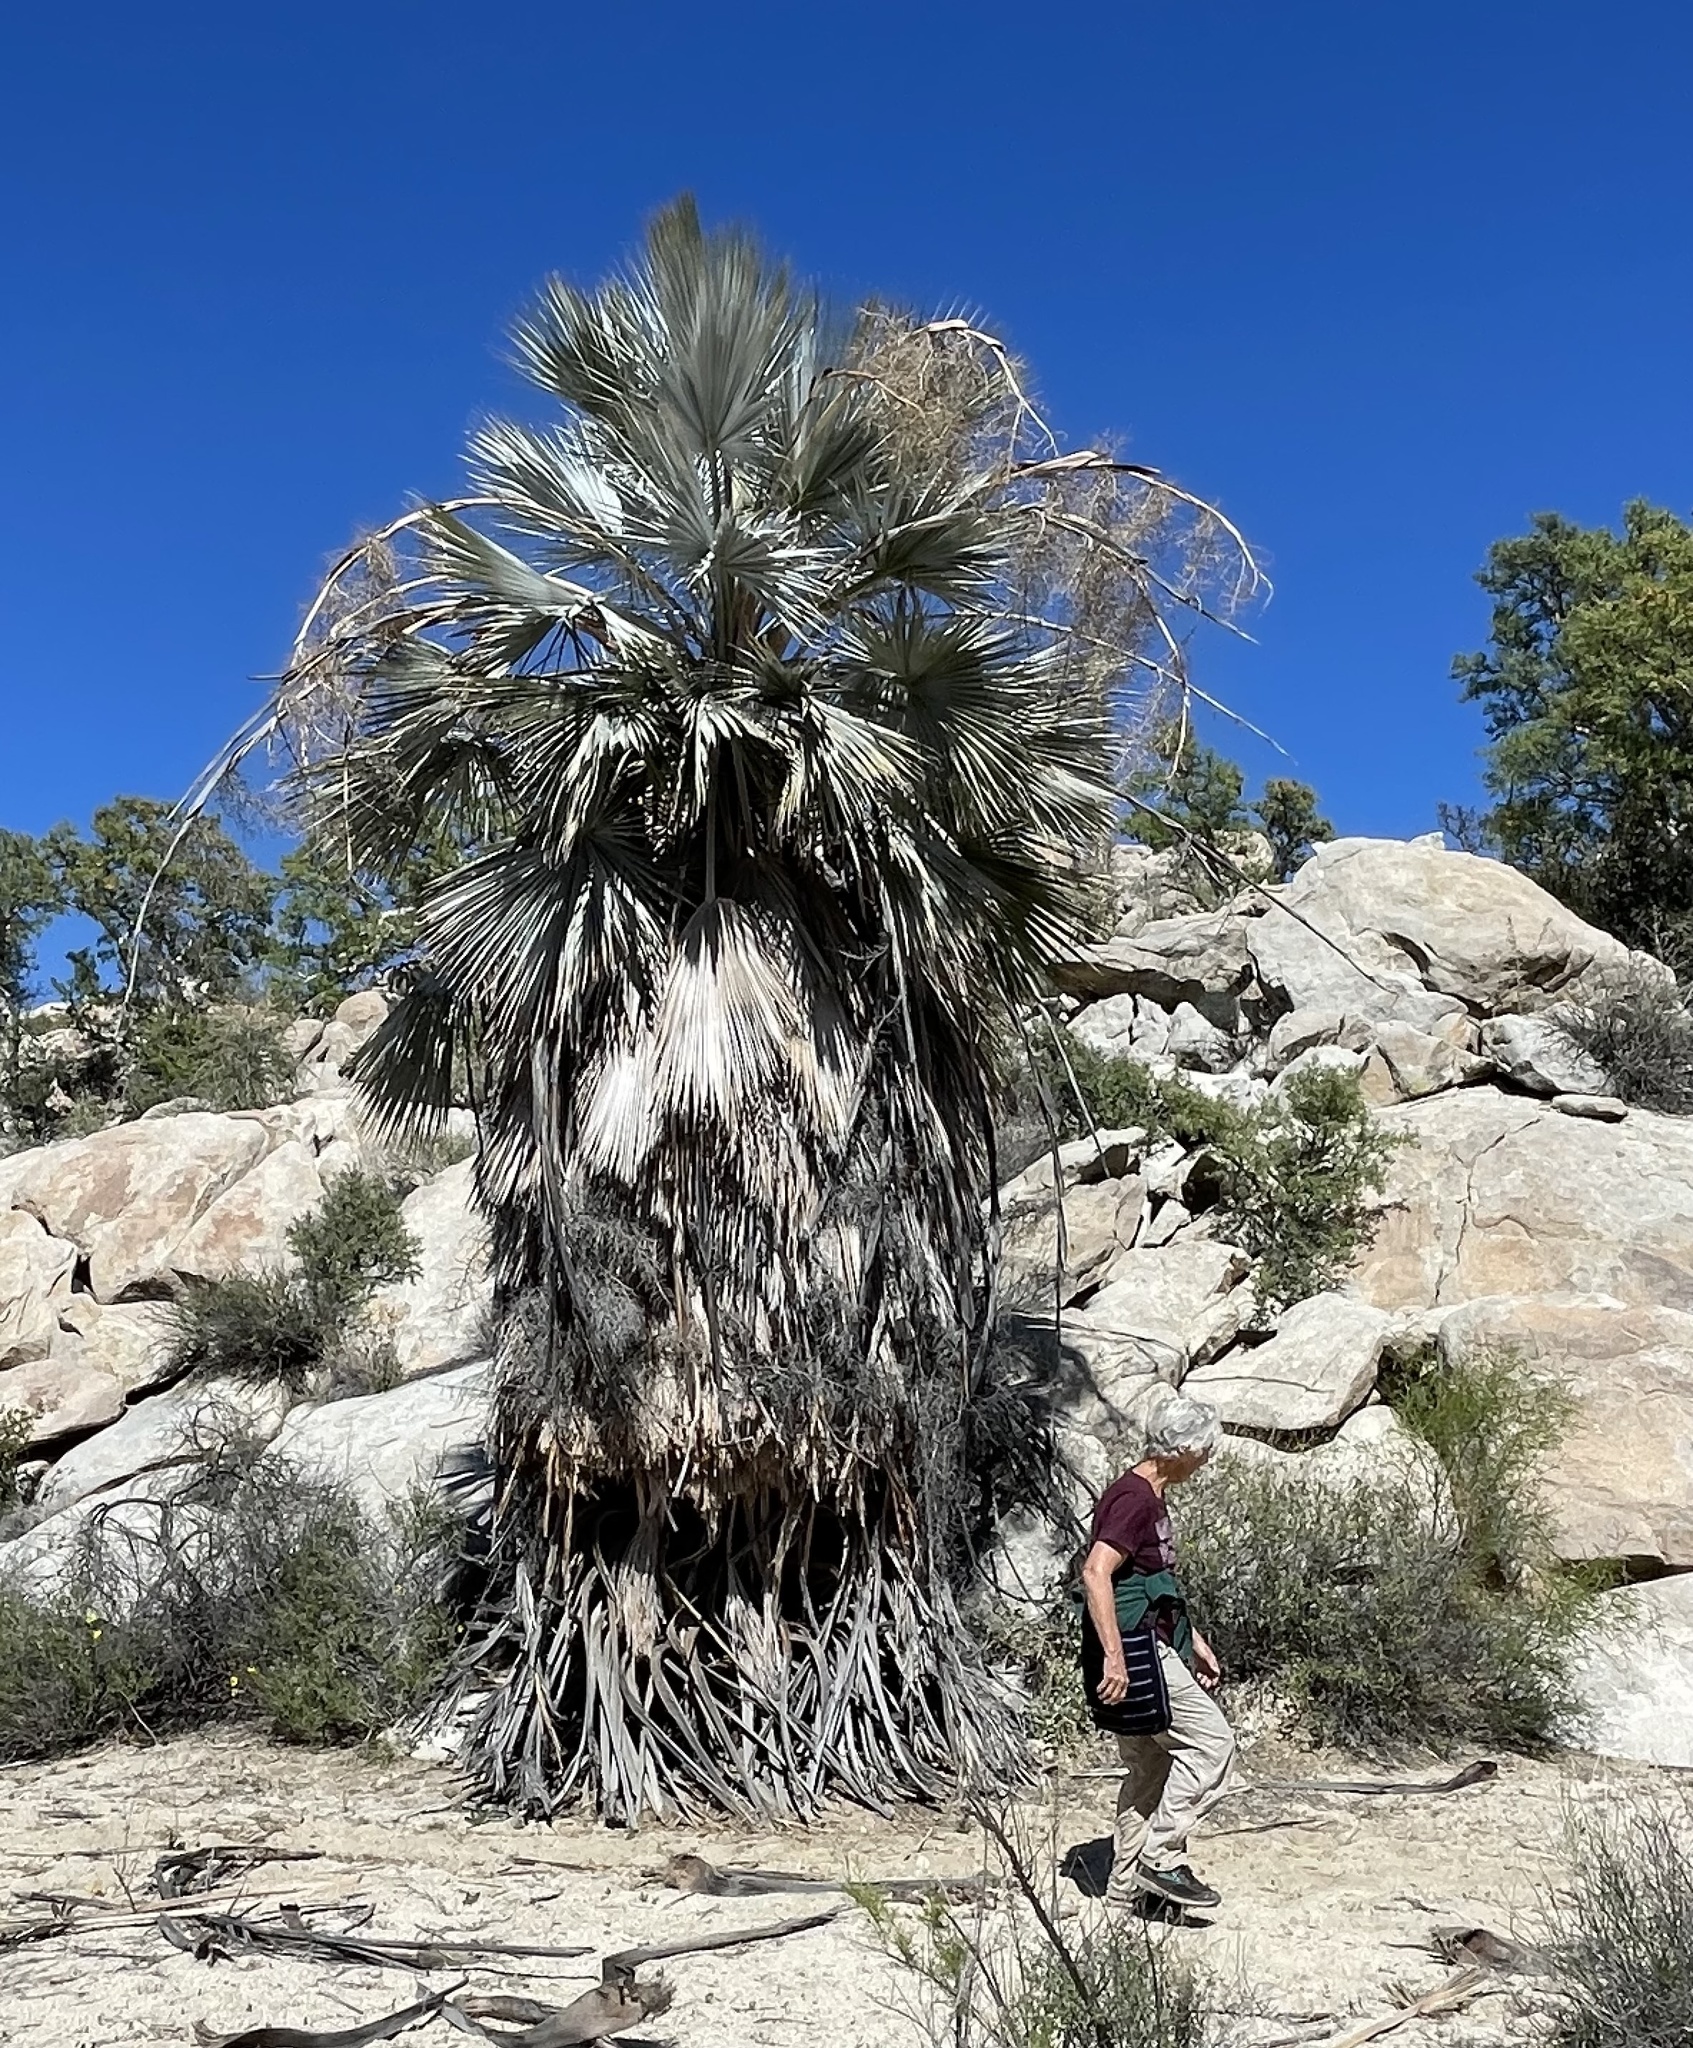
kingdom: Plantae
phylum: Tracheophyta
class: Liliopsida
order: Arecales
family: Arecaceae
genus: Brahea
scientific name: Brahea armata
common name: Mexican blue palm
